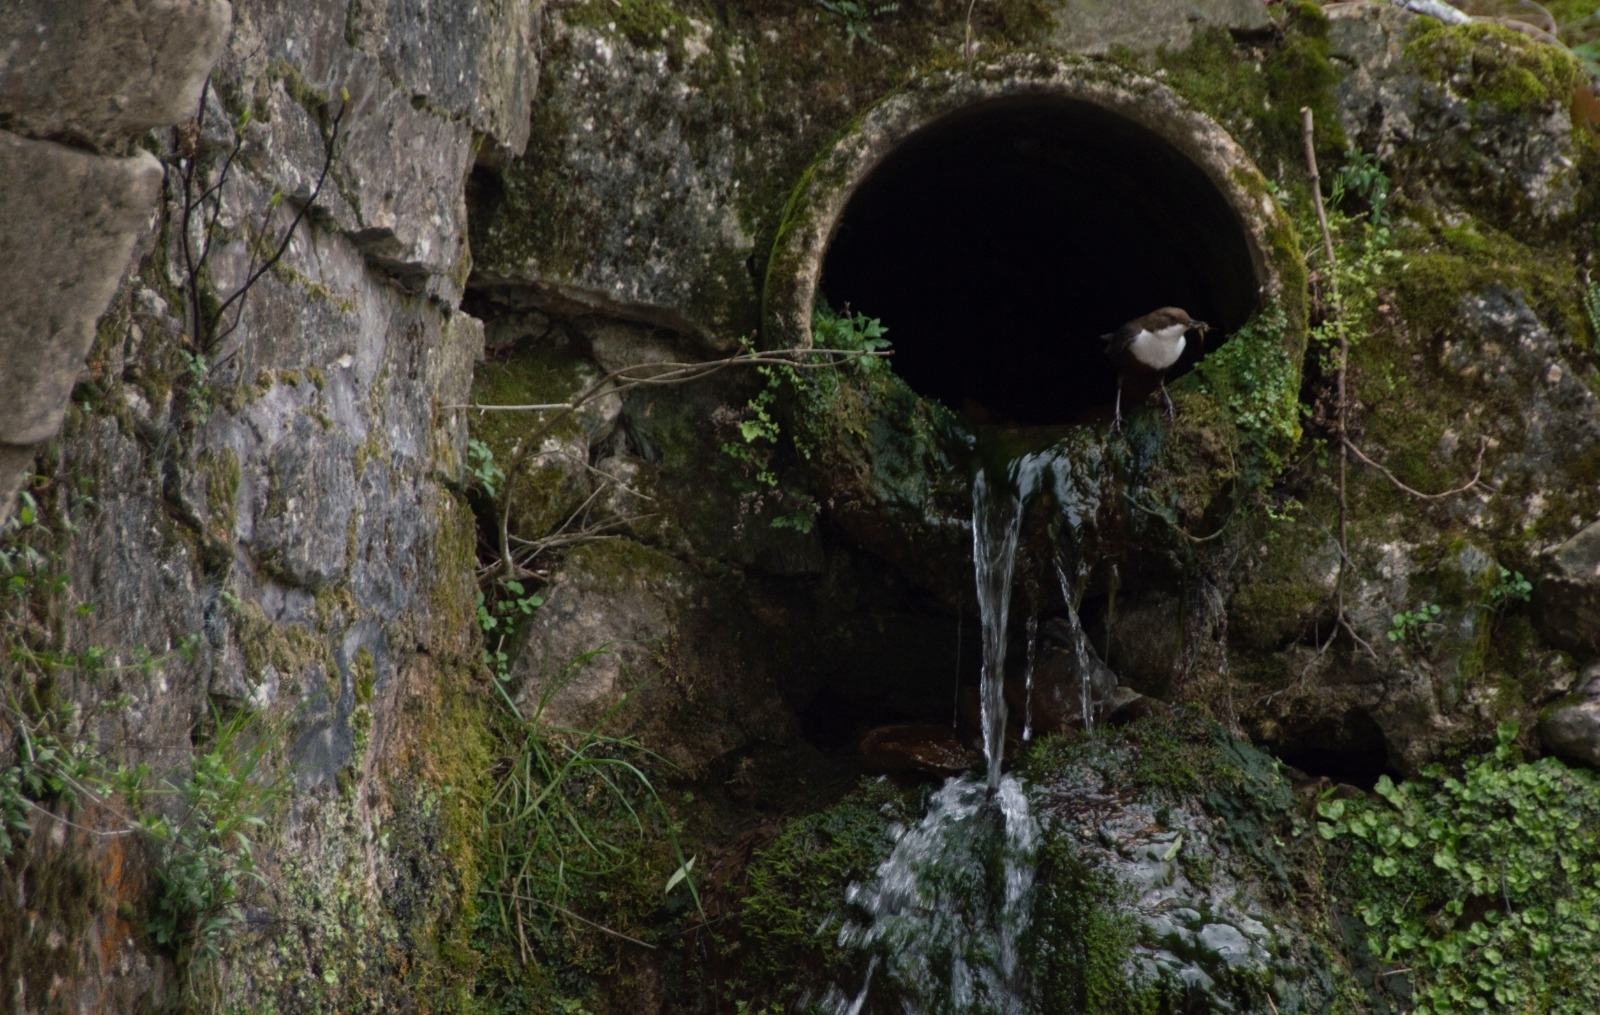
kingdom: Animalia
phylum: Chordata
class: Aves
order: Passeriformes
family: Cinclidae
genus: Cinclus
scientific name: Cinclus cinclus
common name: White-throated dipper
